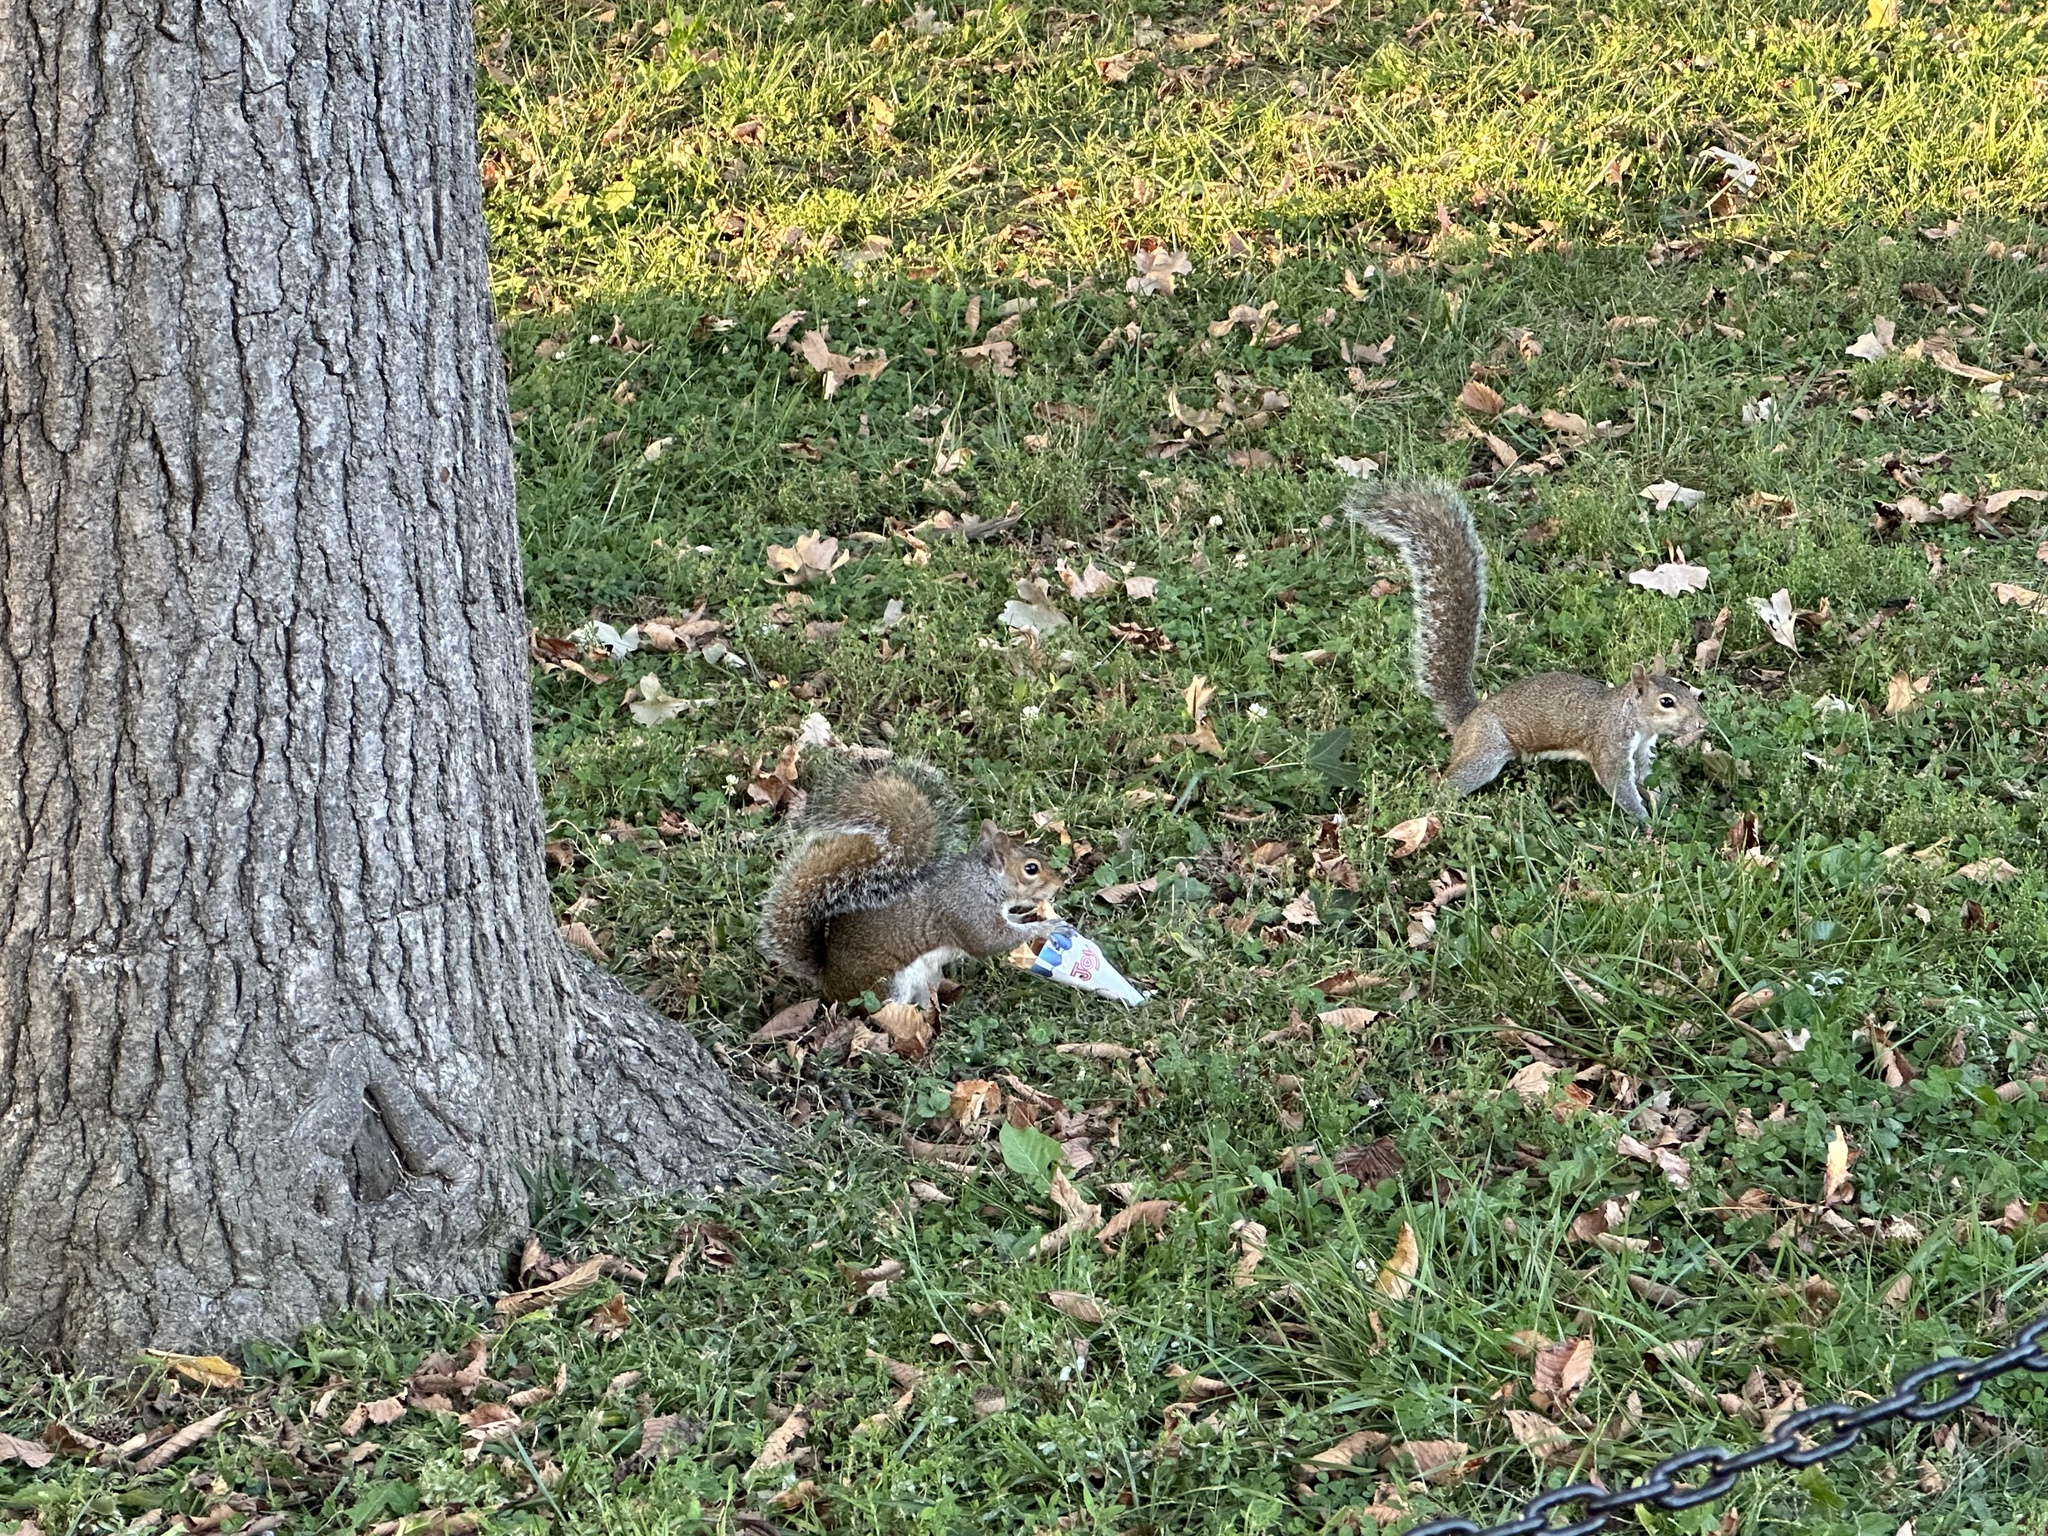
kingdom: Animalia
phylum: Chordata
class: Mammalia
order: Rodentia
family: Sciuridae
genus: Sciurus
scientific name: Sciurus carolinensis
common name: Eastern gray squirrel
